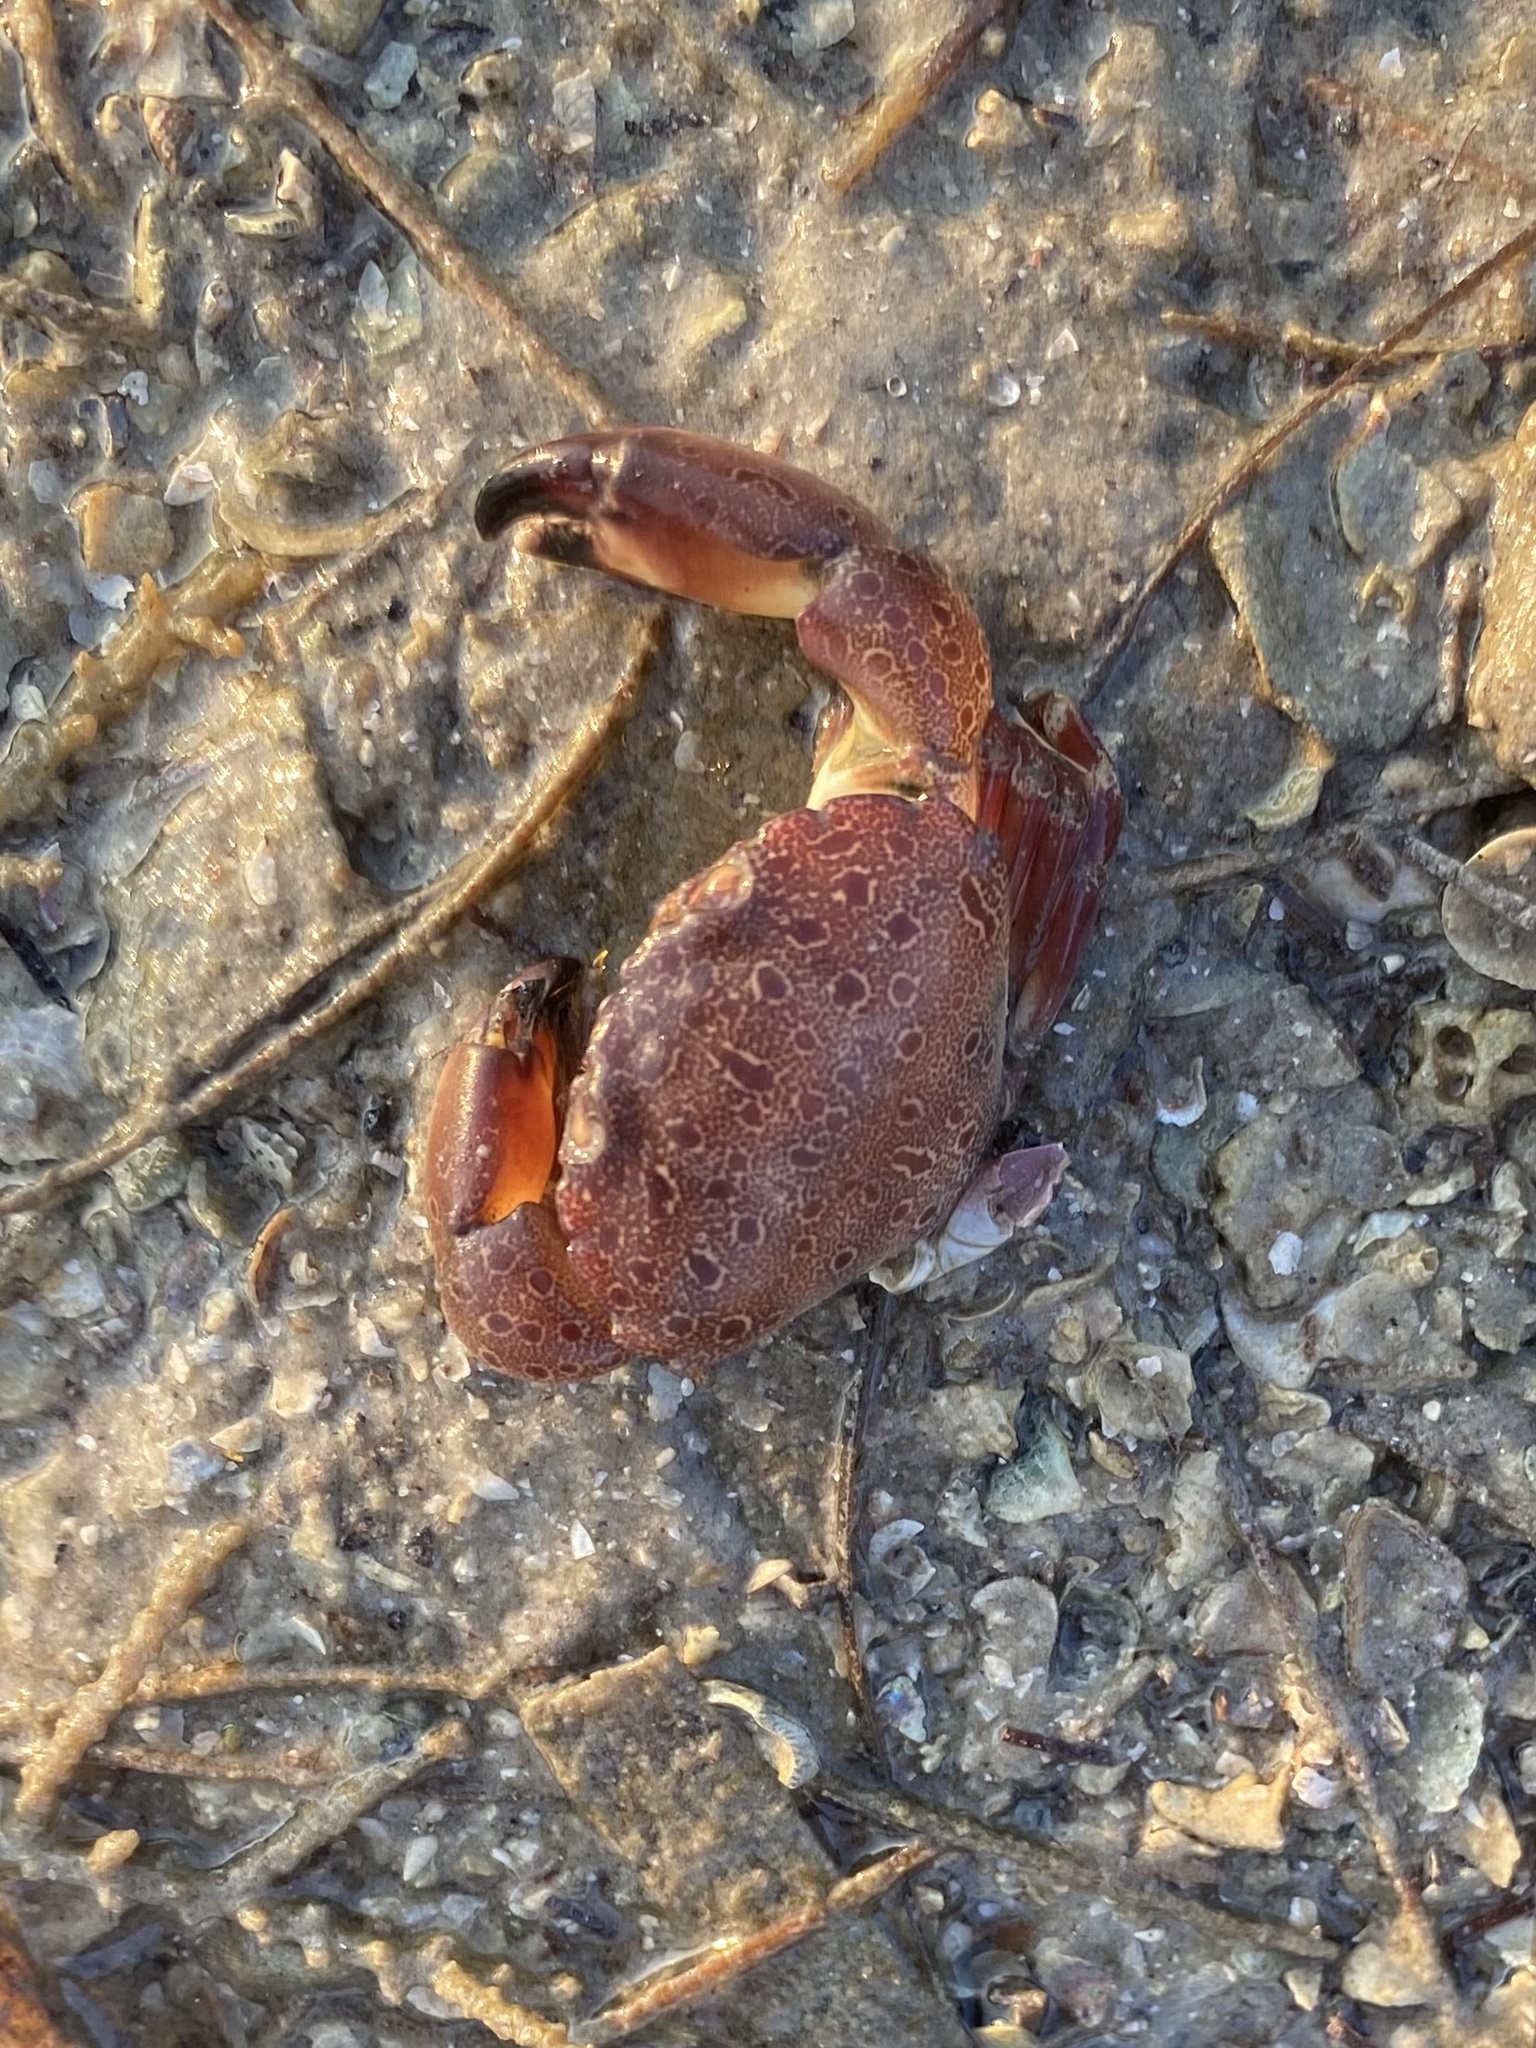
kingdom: Animalia
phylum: Arthropoda
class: Malacostraca
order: Decapoda
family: Menippidae
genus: Menippe
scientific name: Menippe mercenaria
